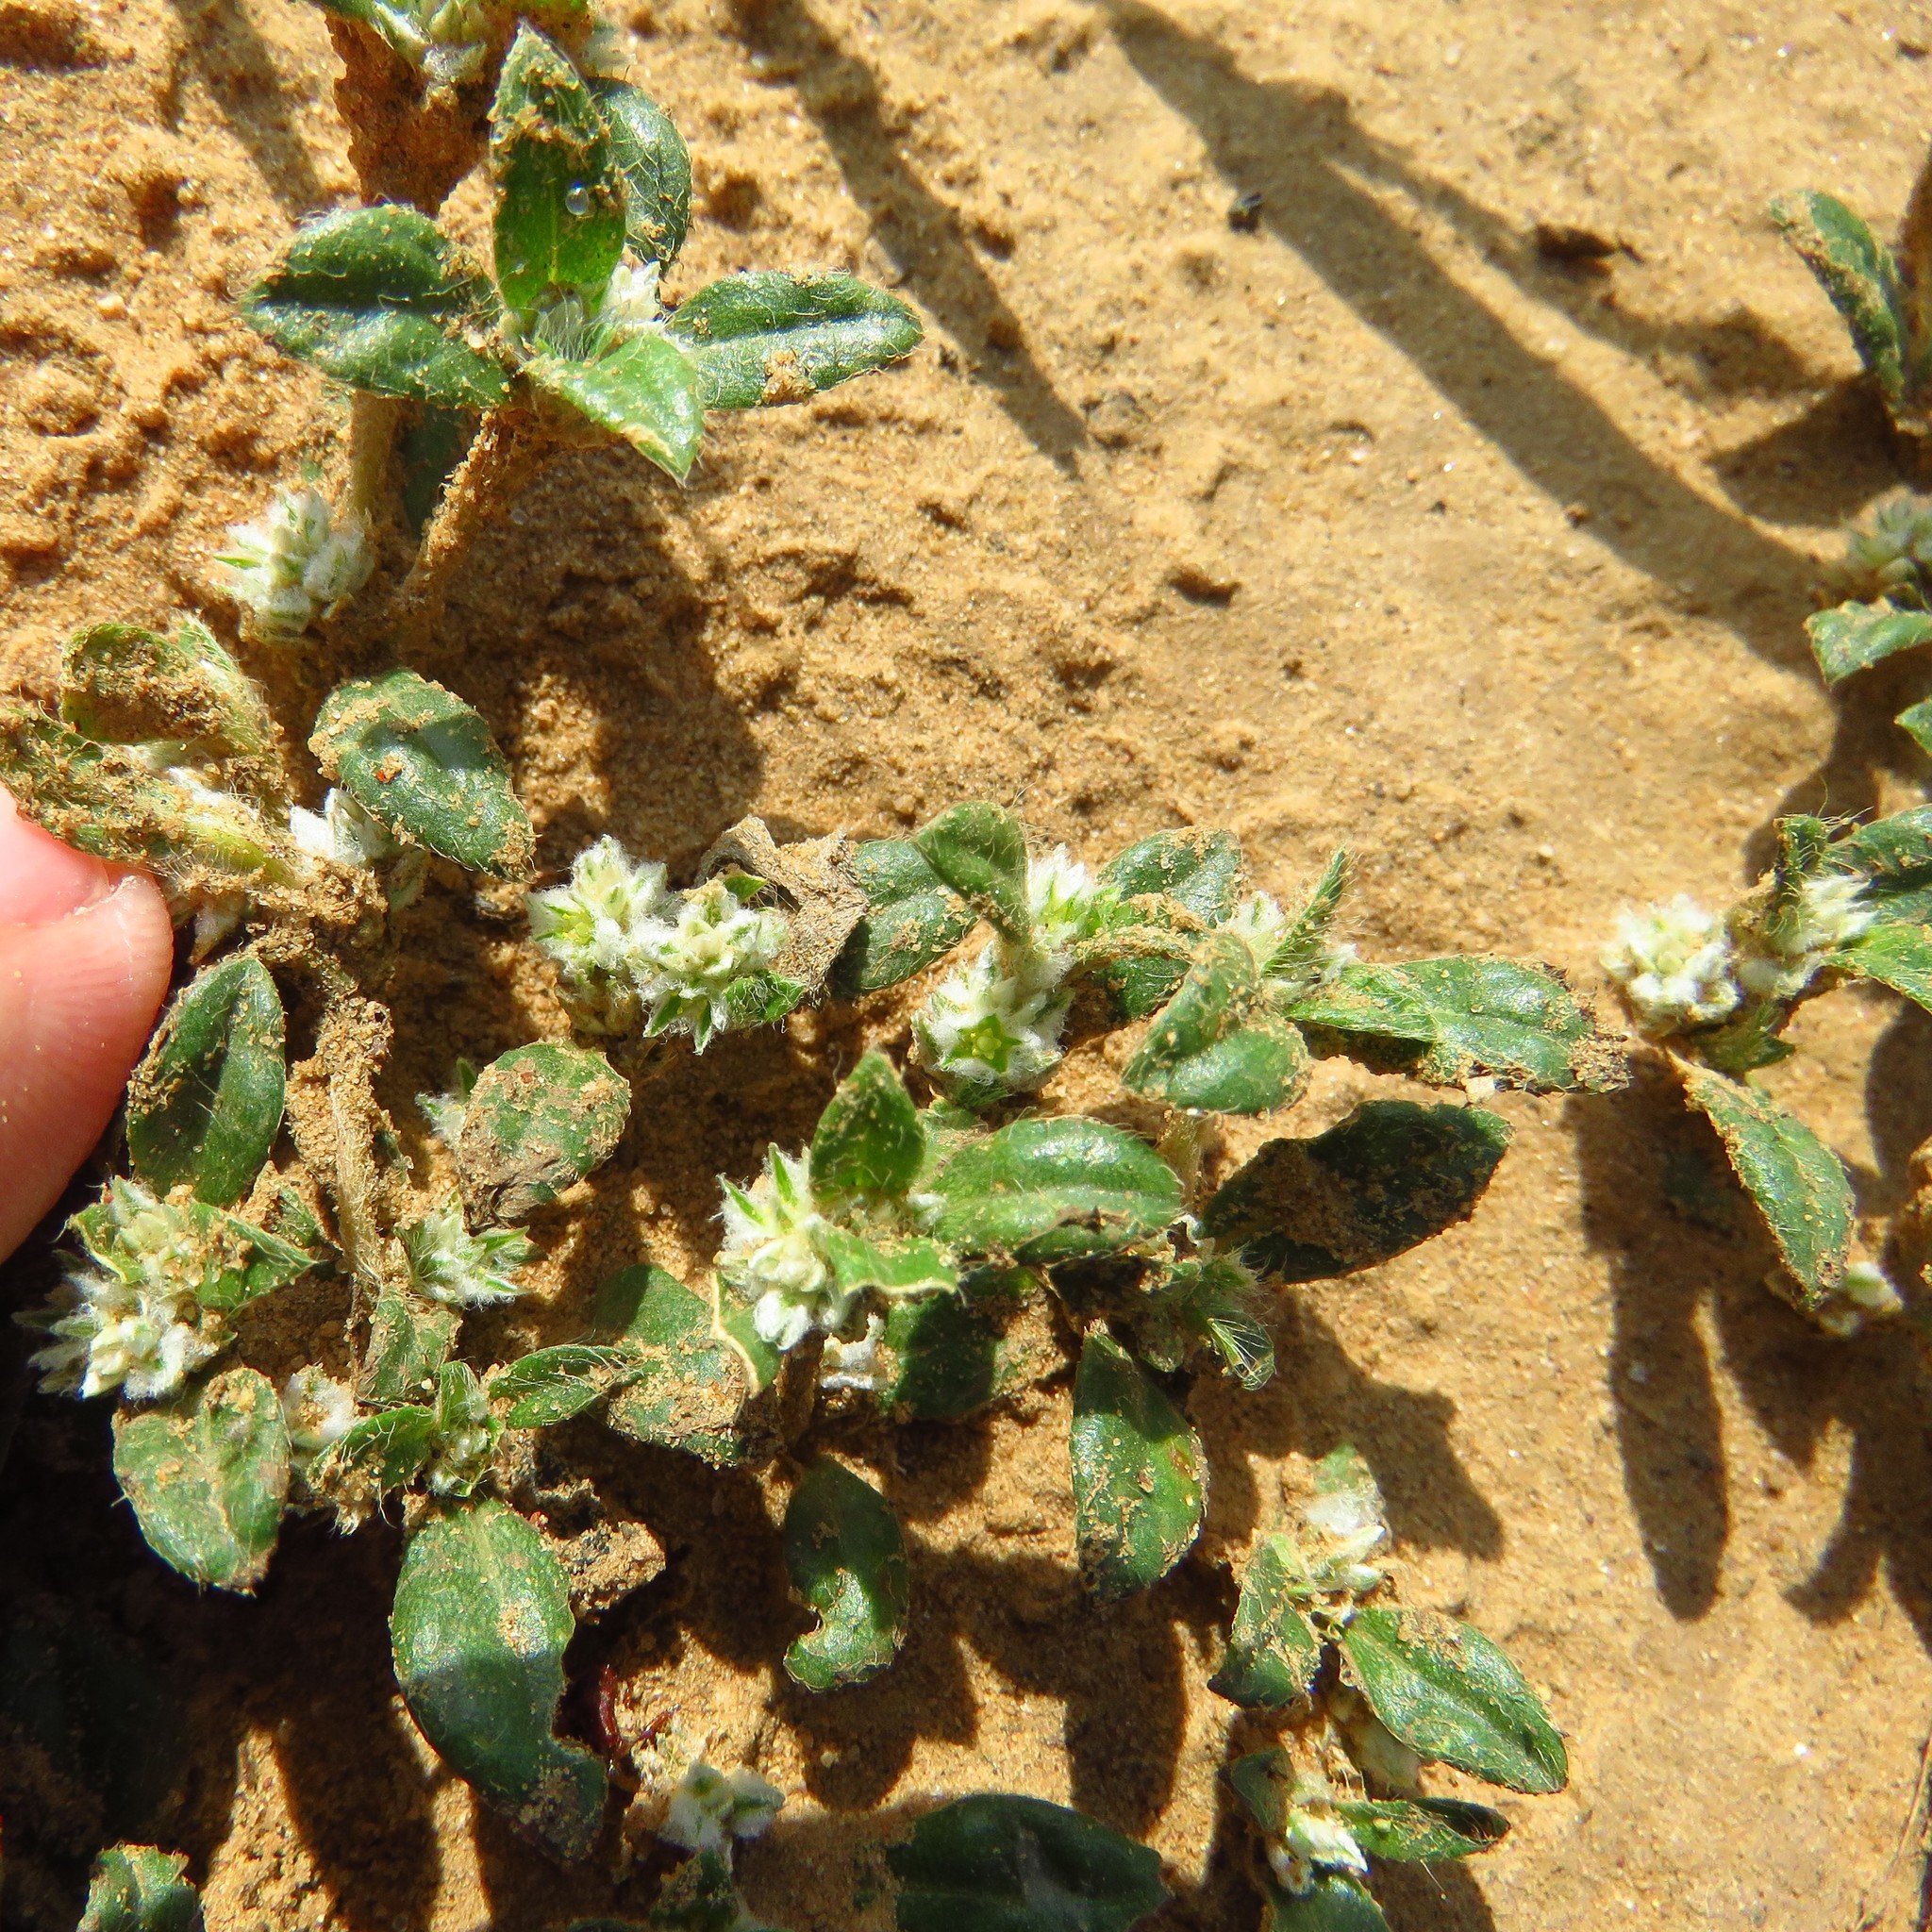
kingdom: Plantae
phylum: Tracheophyta
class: Magnoliopsida
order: Caryophyllales
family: Amaranthaceae
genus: Gomphrena
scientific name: Gomphrena lanuparonychioides
